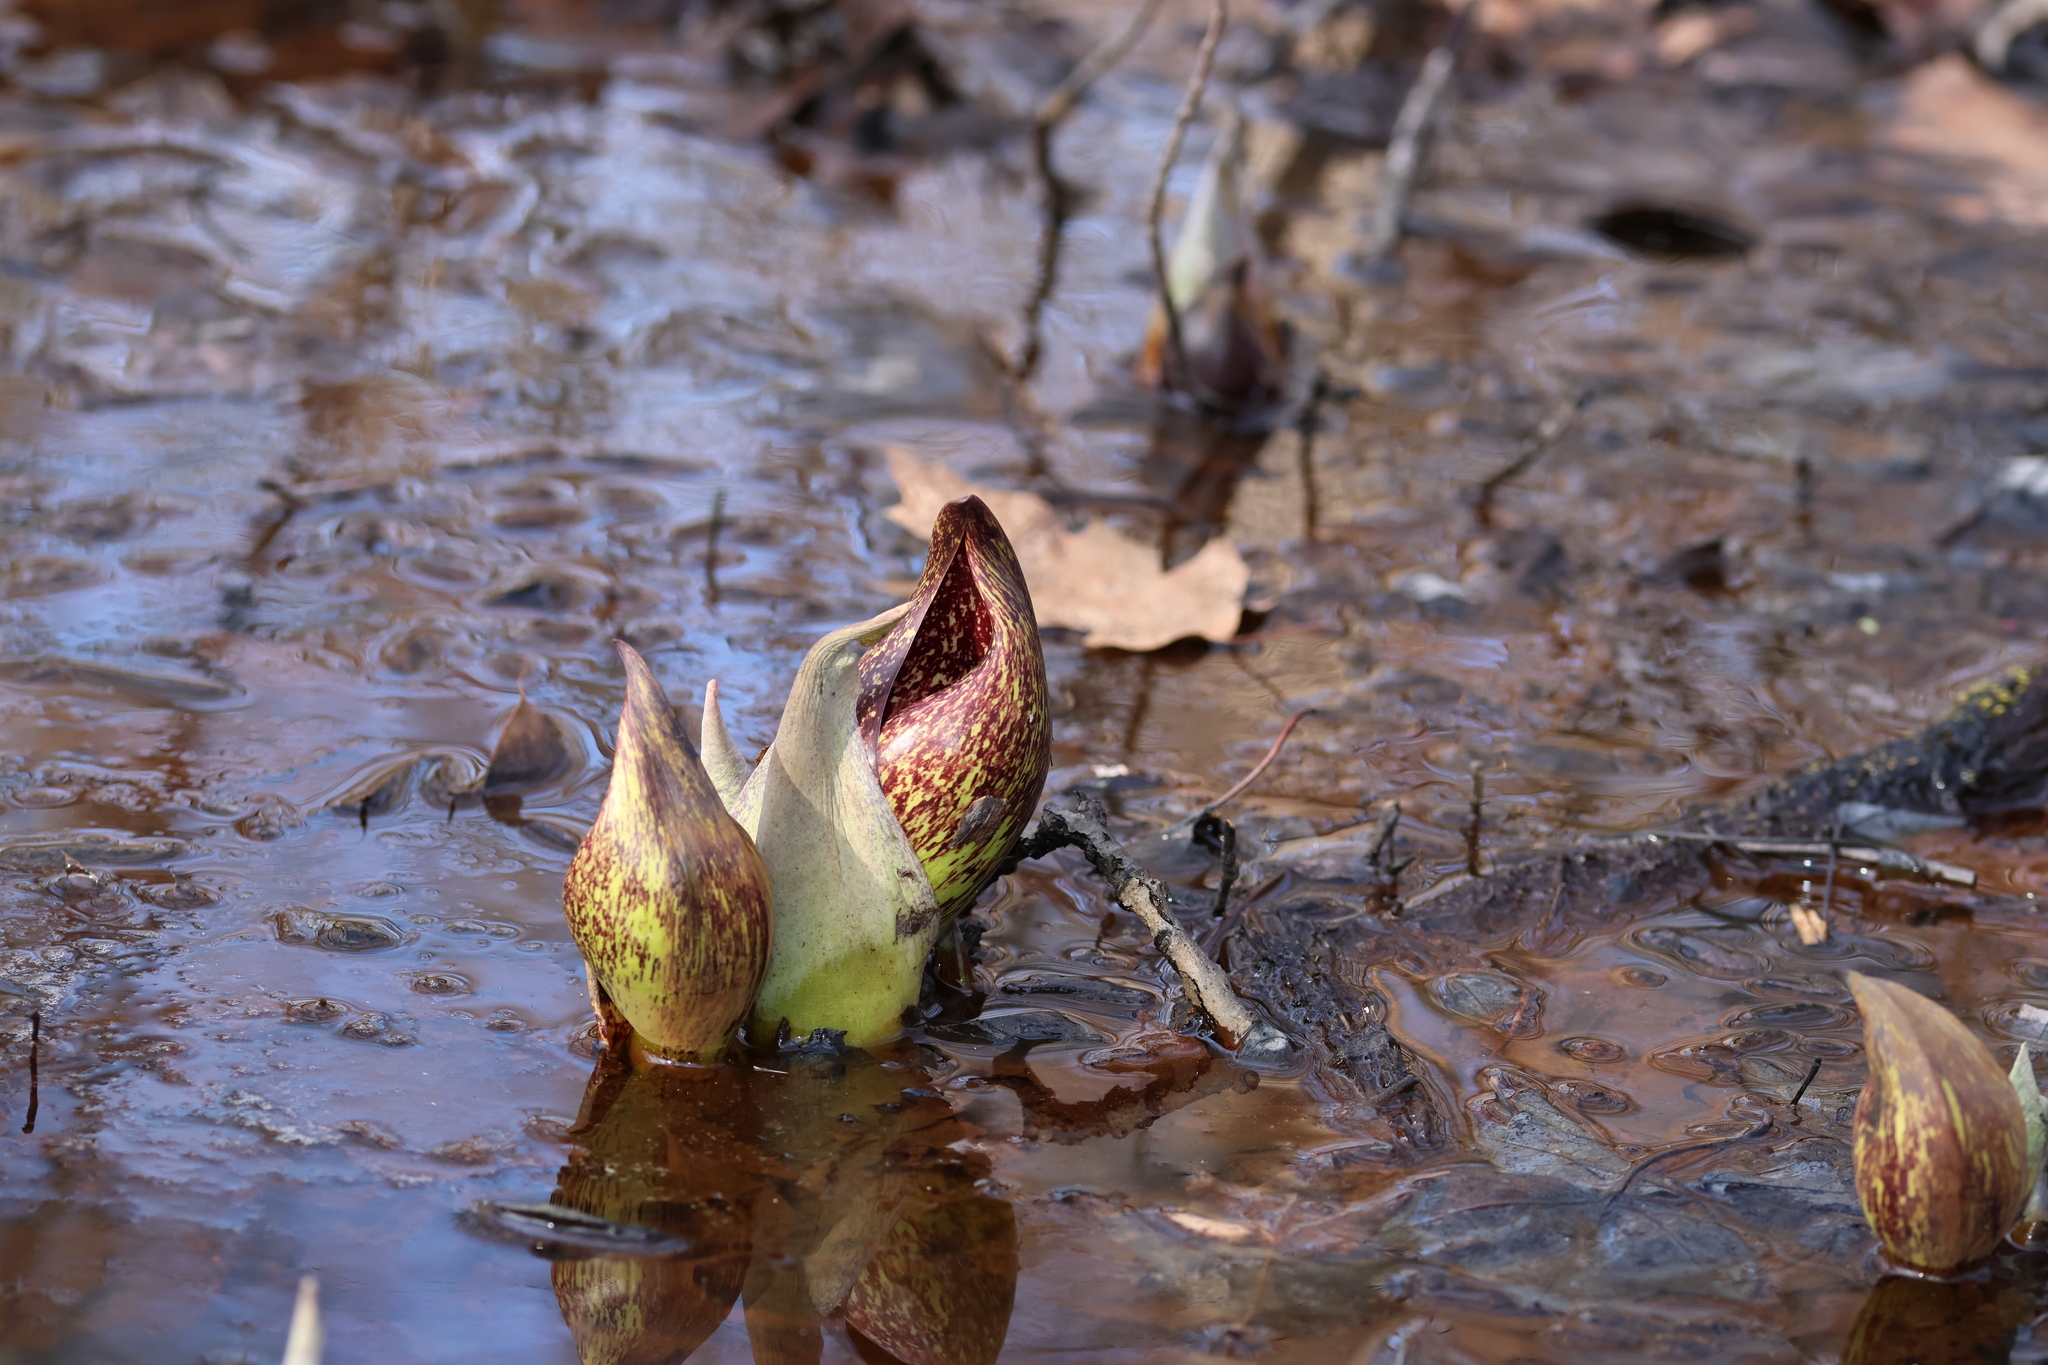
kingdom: Plantae
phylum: Tracheophyta
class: Liliopsida
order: Alismatales
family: Araceae
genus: Symplocarpus
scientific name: Symplocarpus foetidus
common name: Eastern skunk cabbage
